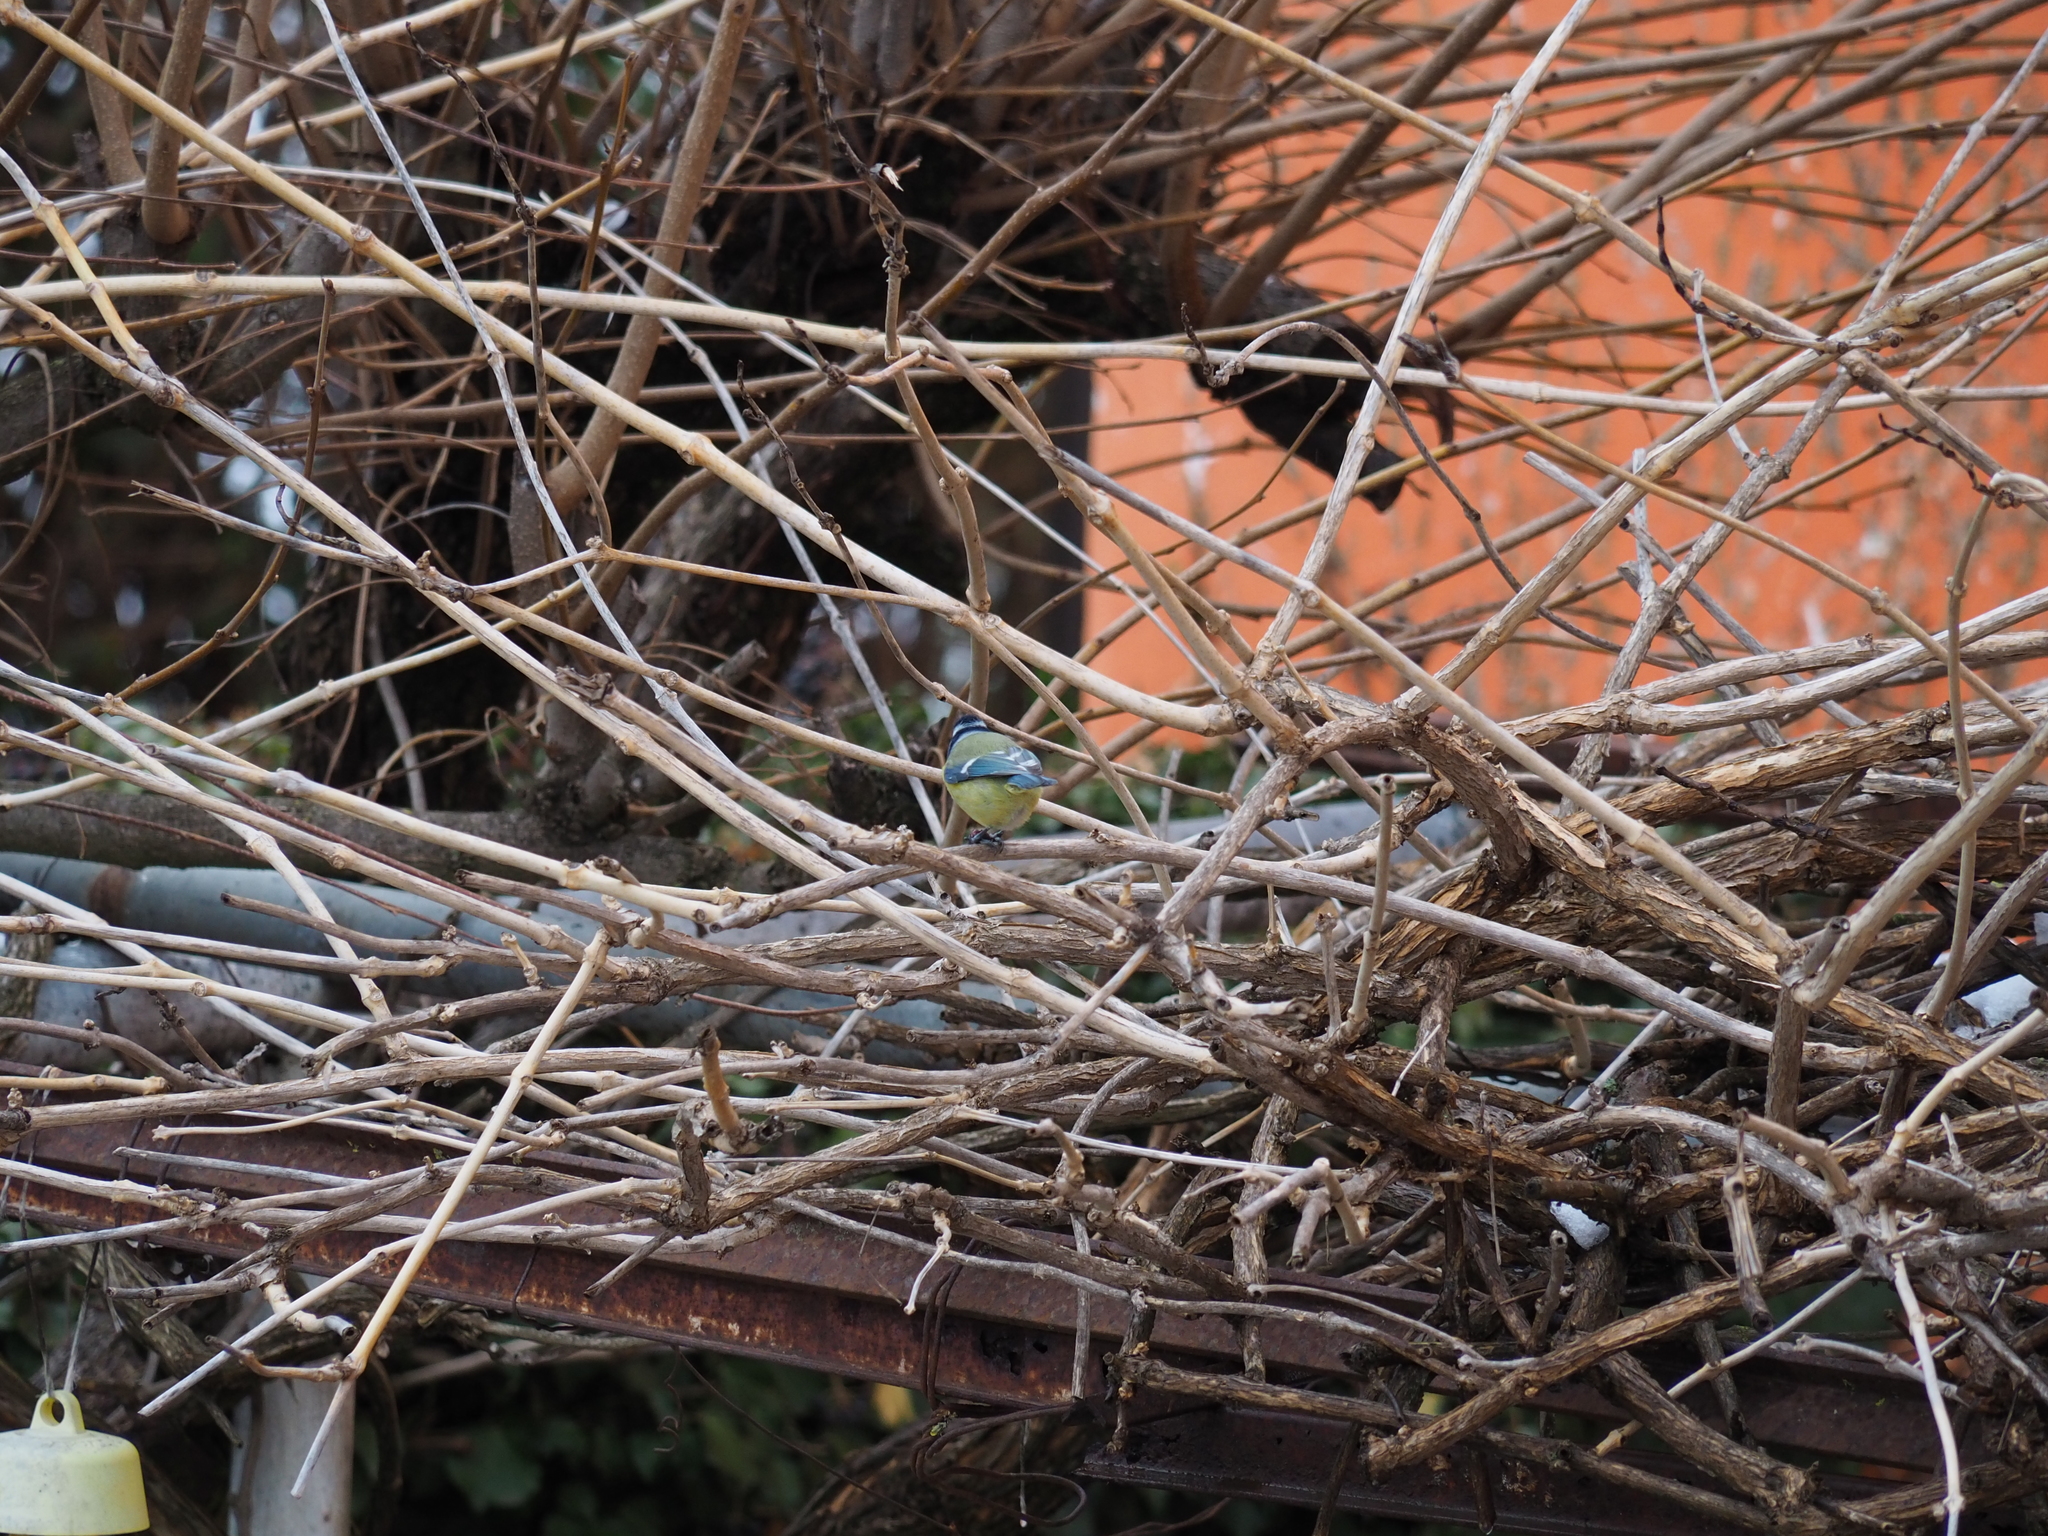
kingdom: Animalia
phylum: Chordata
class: Aves
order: Passeriformes
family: Paridae
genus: Cyanistes
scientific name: Cyanistes caeruleus
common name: Eurasian blue tit
